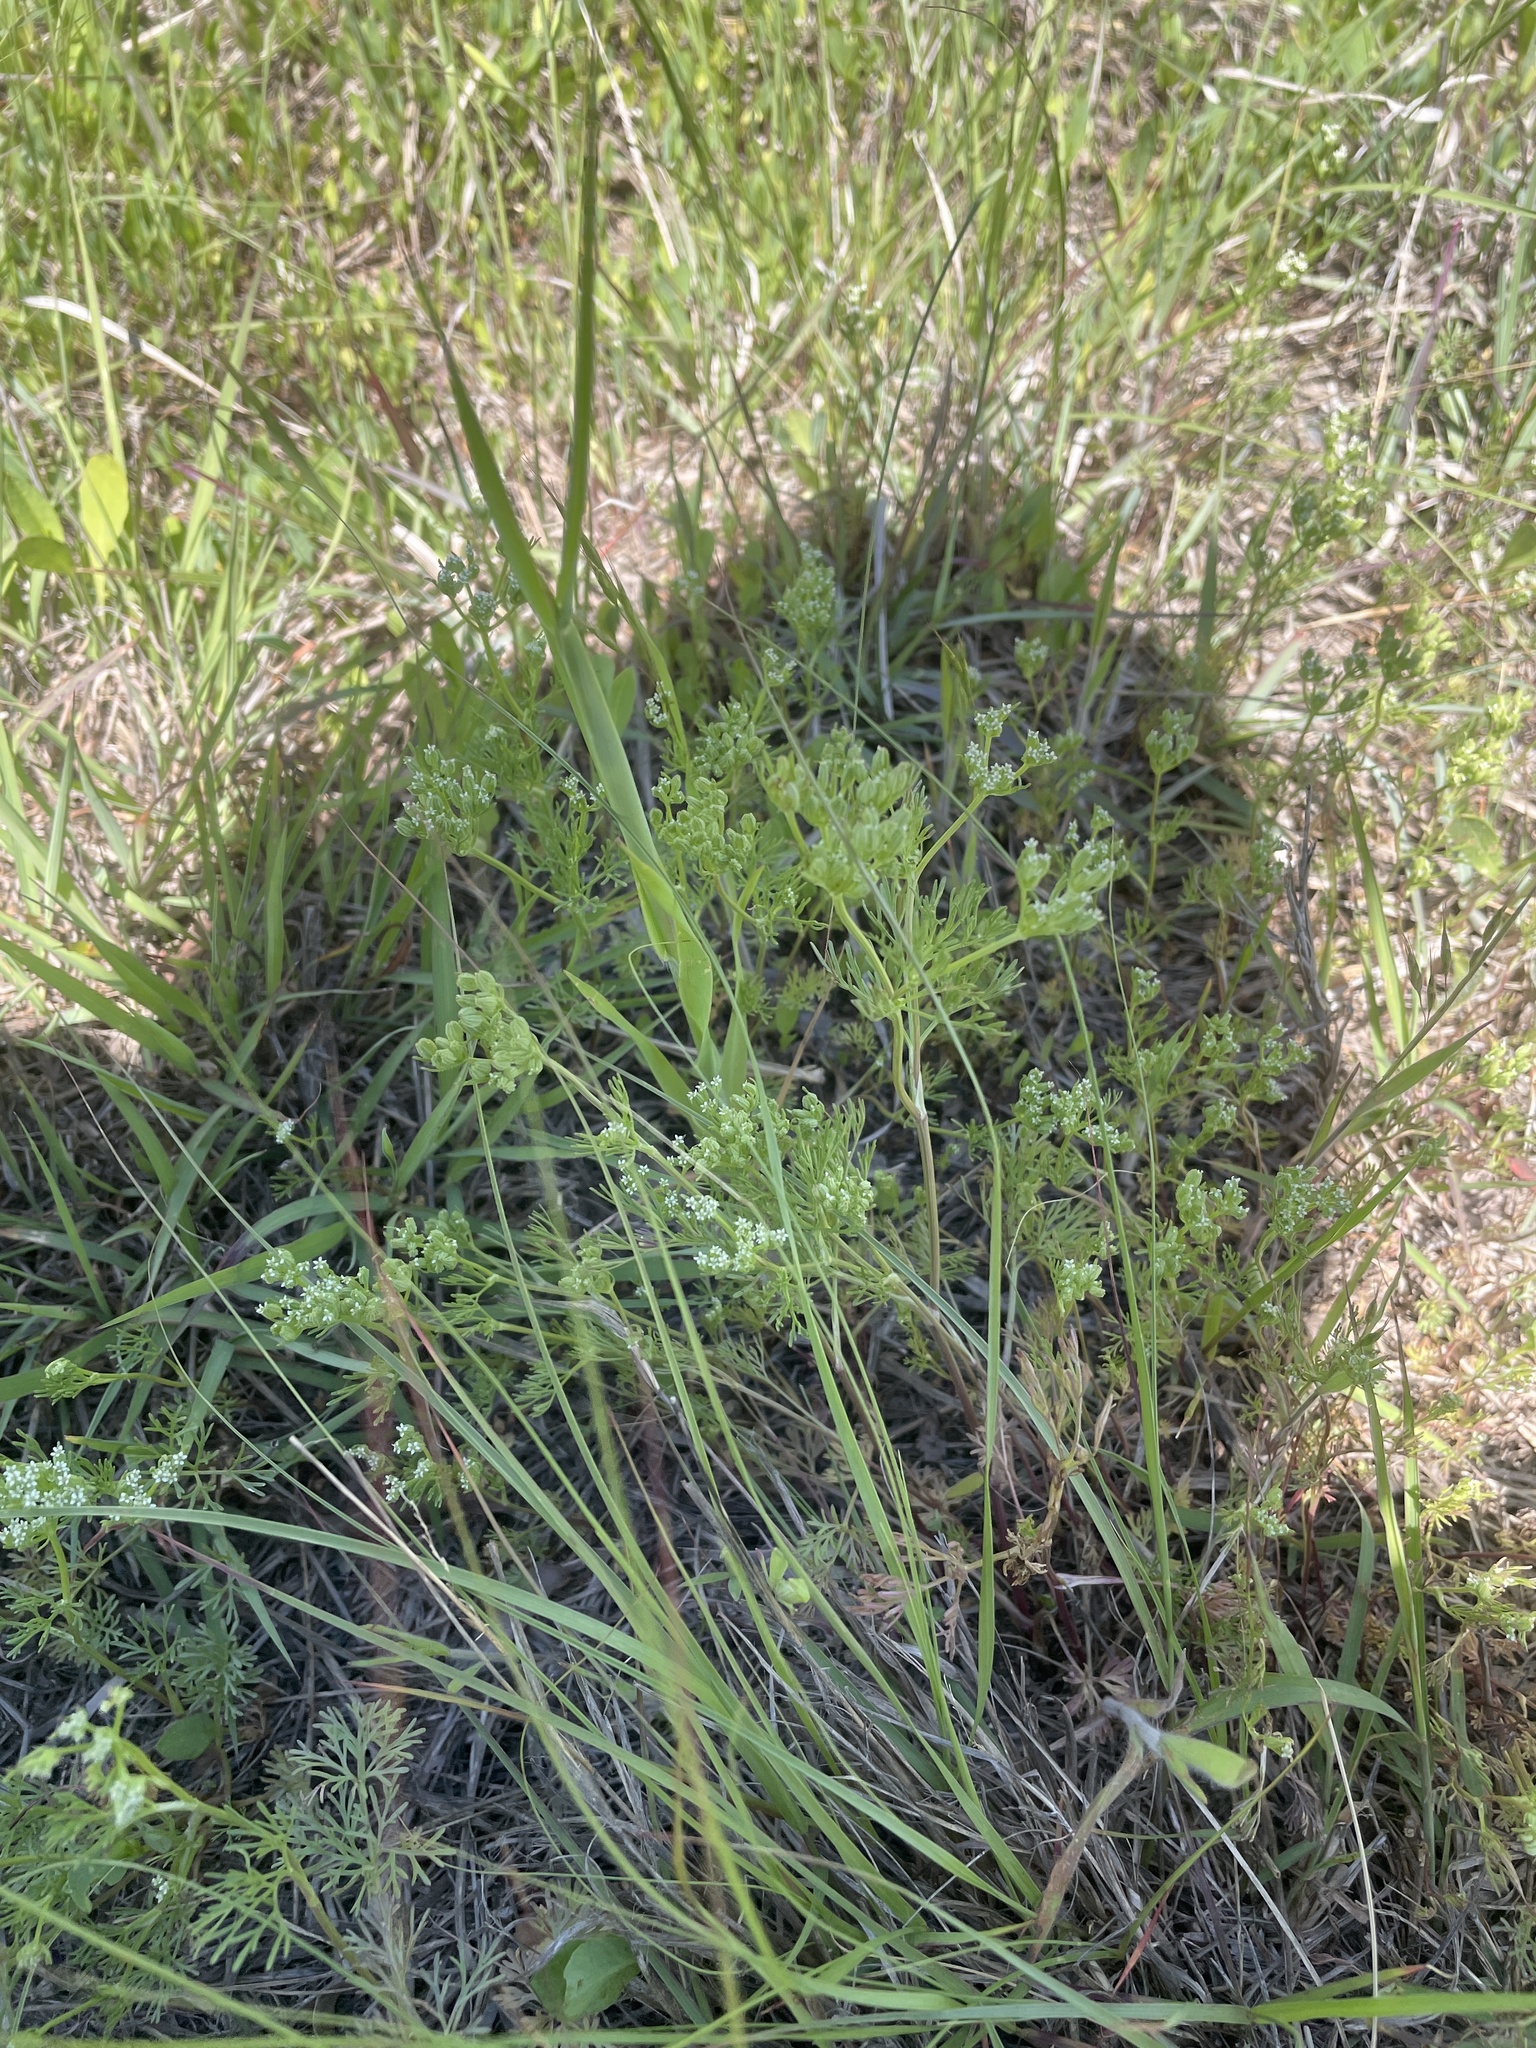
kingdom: Plantae
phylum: Tracheophyta
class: Magnoliopsida
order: Apiales
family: Apiaceae
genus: Ammoselinum
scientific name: Ammoselinum popei
